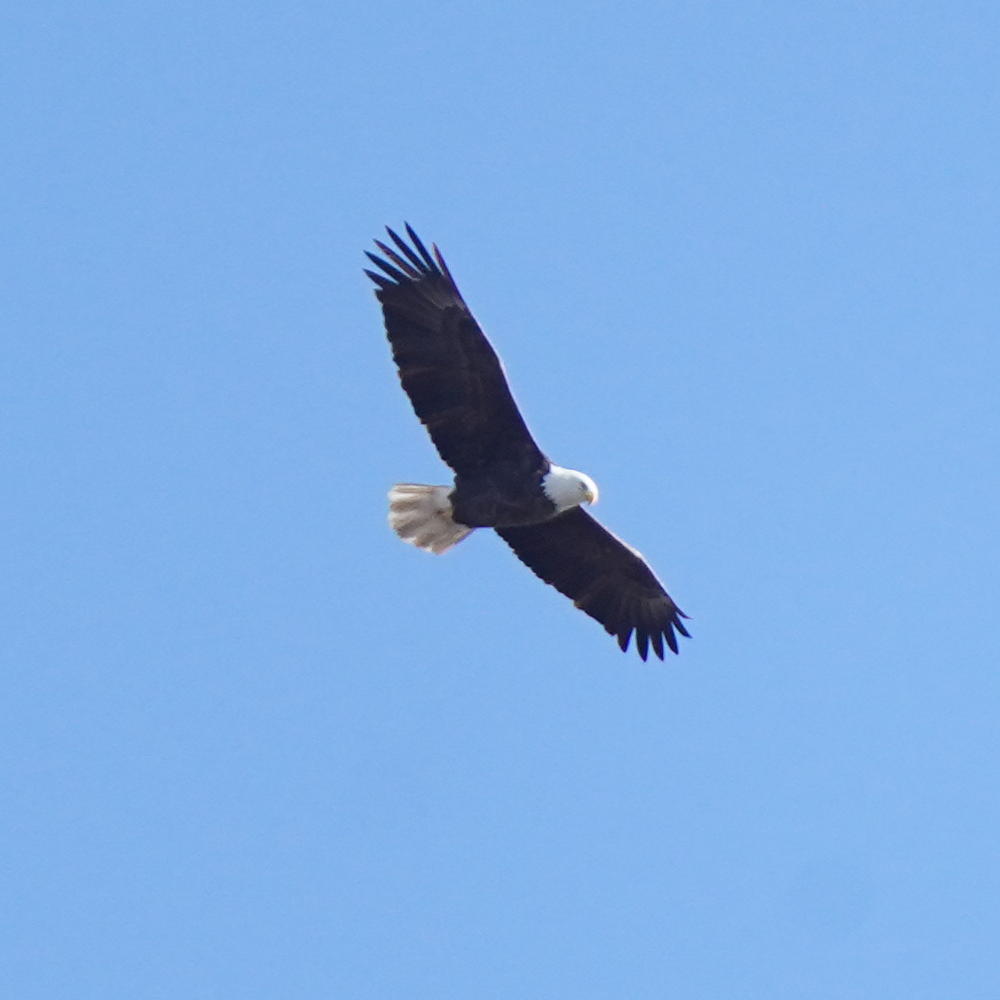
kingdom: Animalia
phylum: Chordata
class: Aves
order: Accipitriformes
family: Accipitridae
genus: Haliaeetus
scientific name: Haliaeetus leucocephalus
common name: Bald eagle
